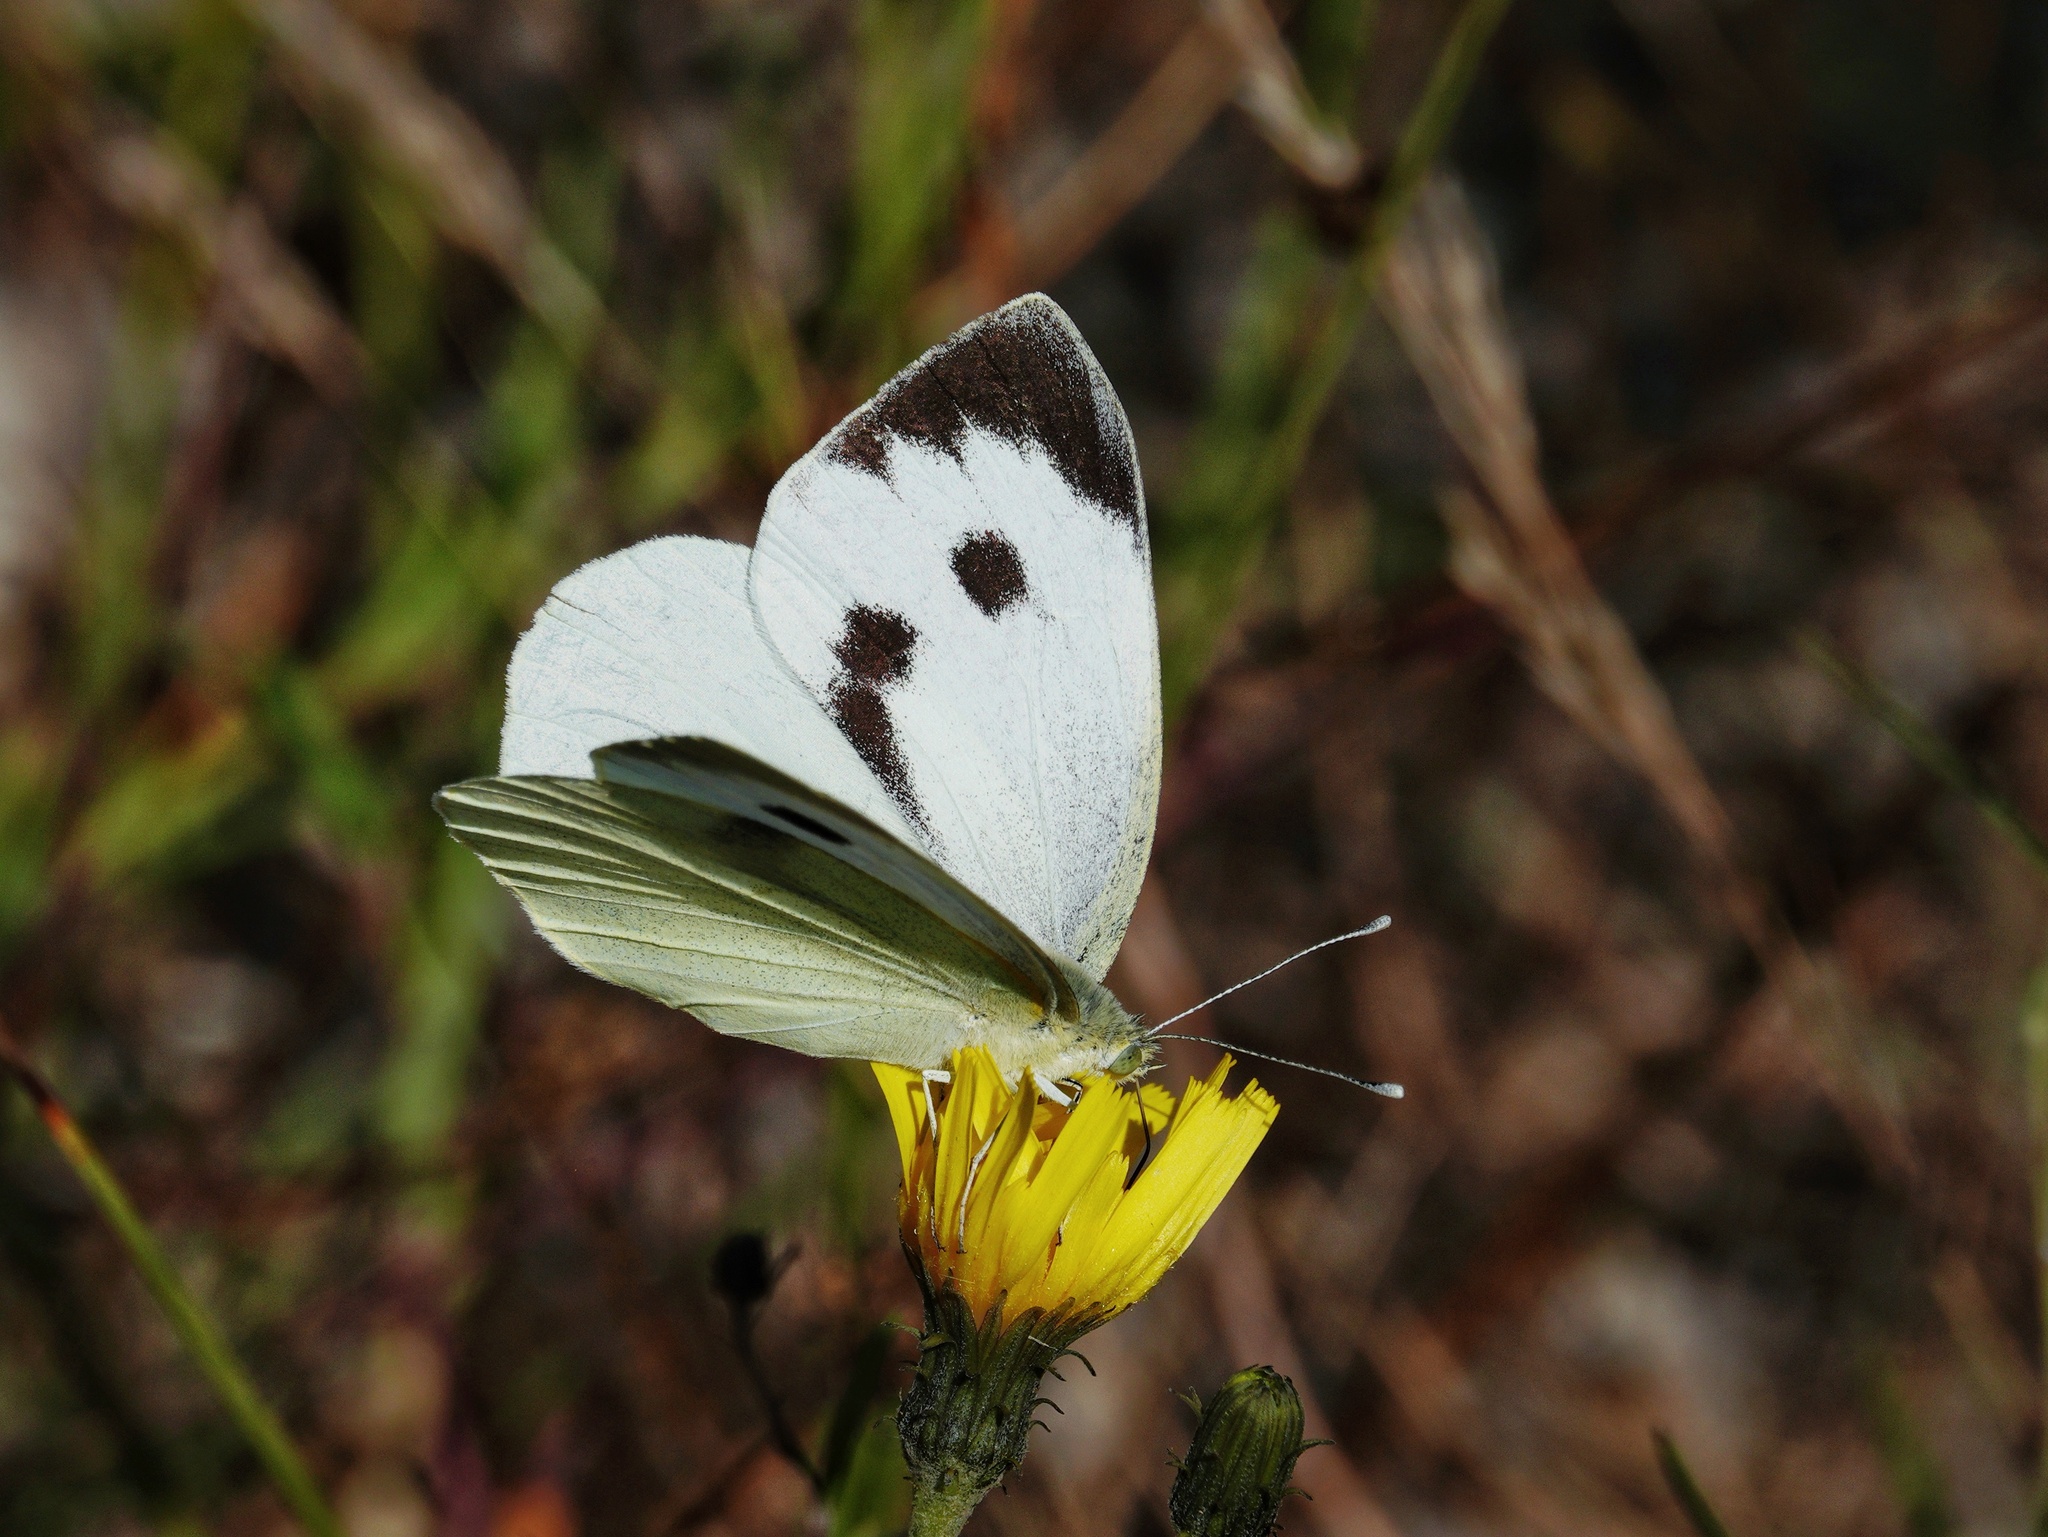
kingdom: Animalia
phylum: Arthropoda
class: Insecta
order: Lepidoptera
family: Pieridae
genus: Pieris
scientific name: Pieris brassicae
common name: Large white
